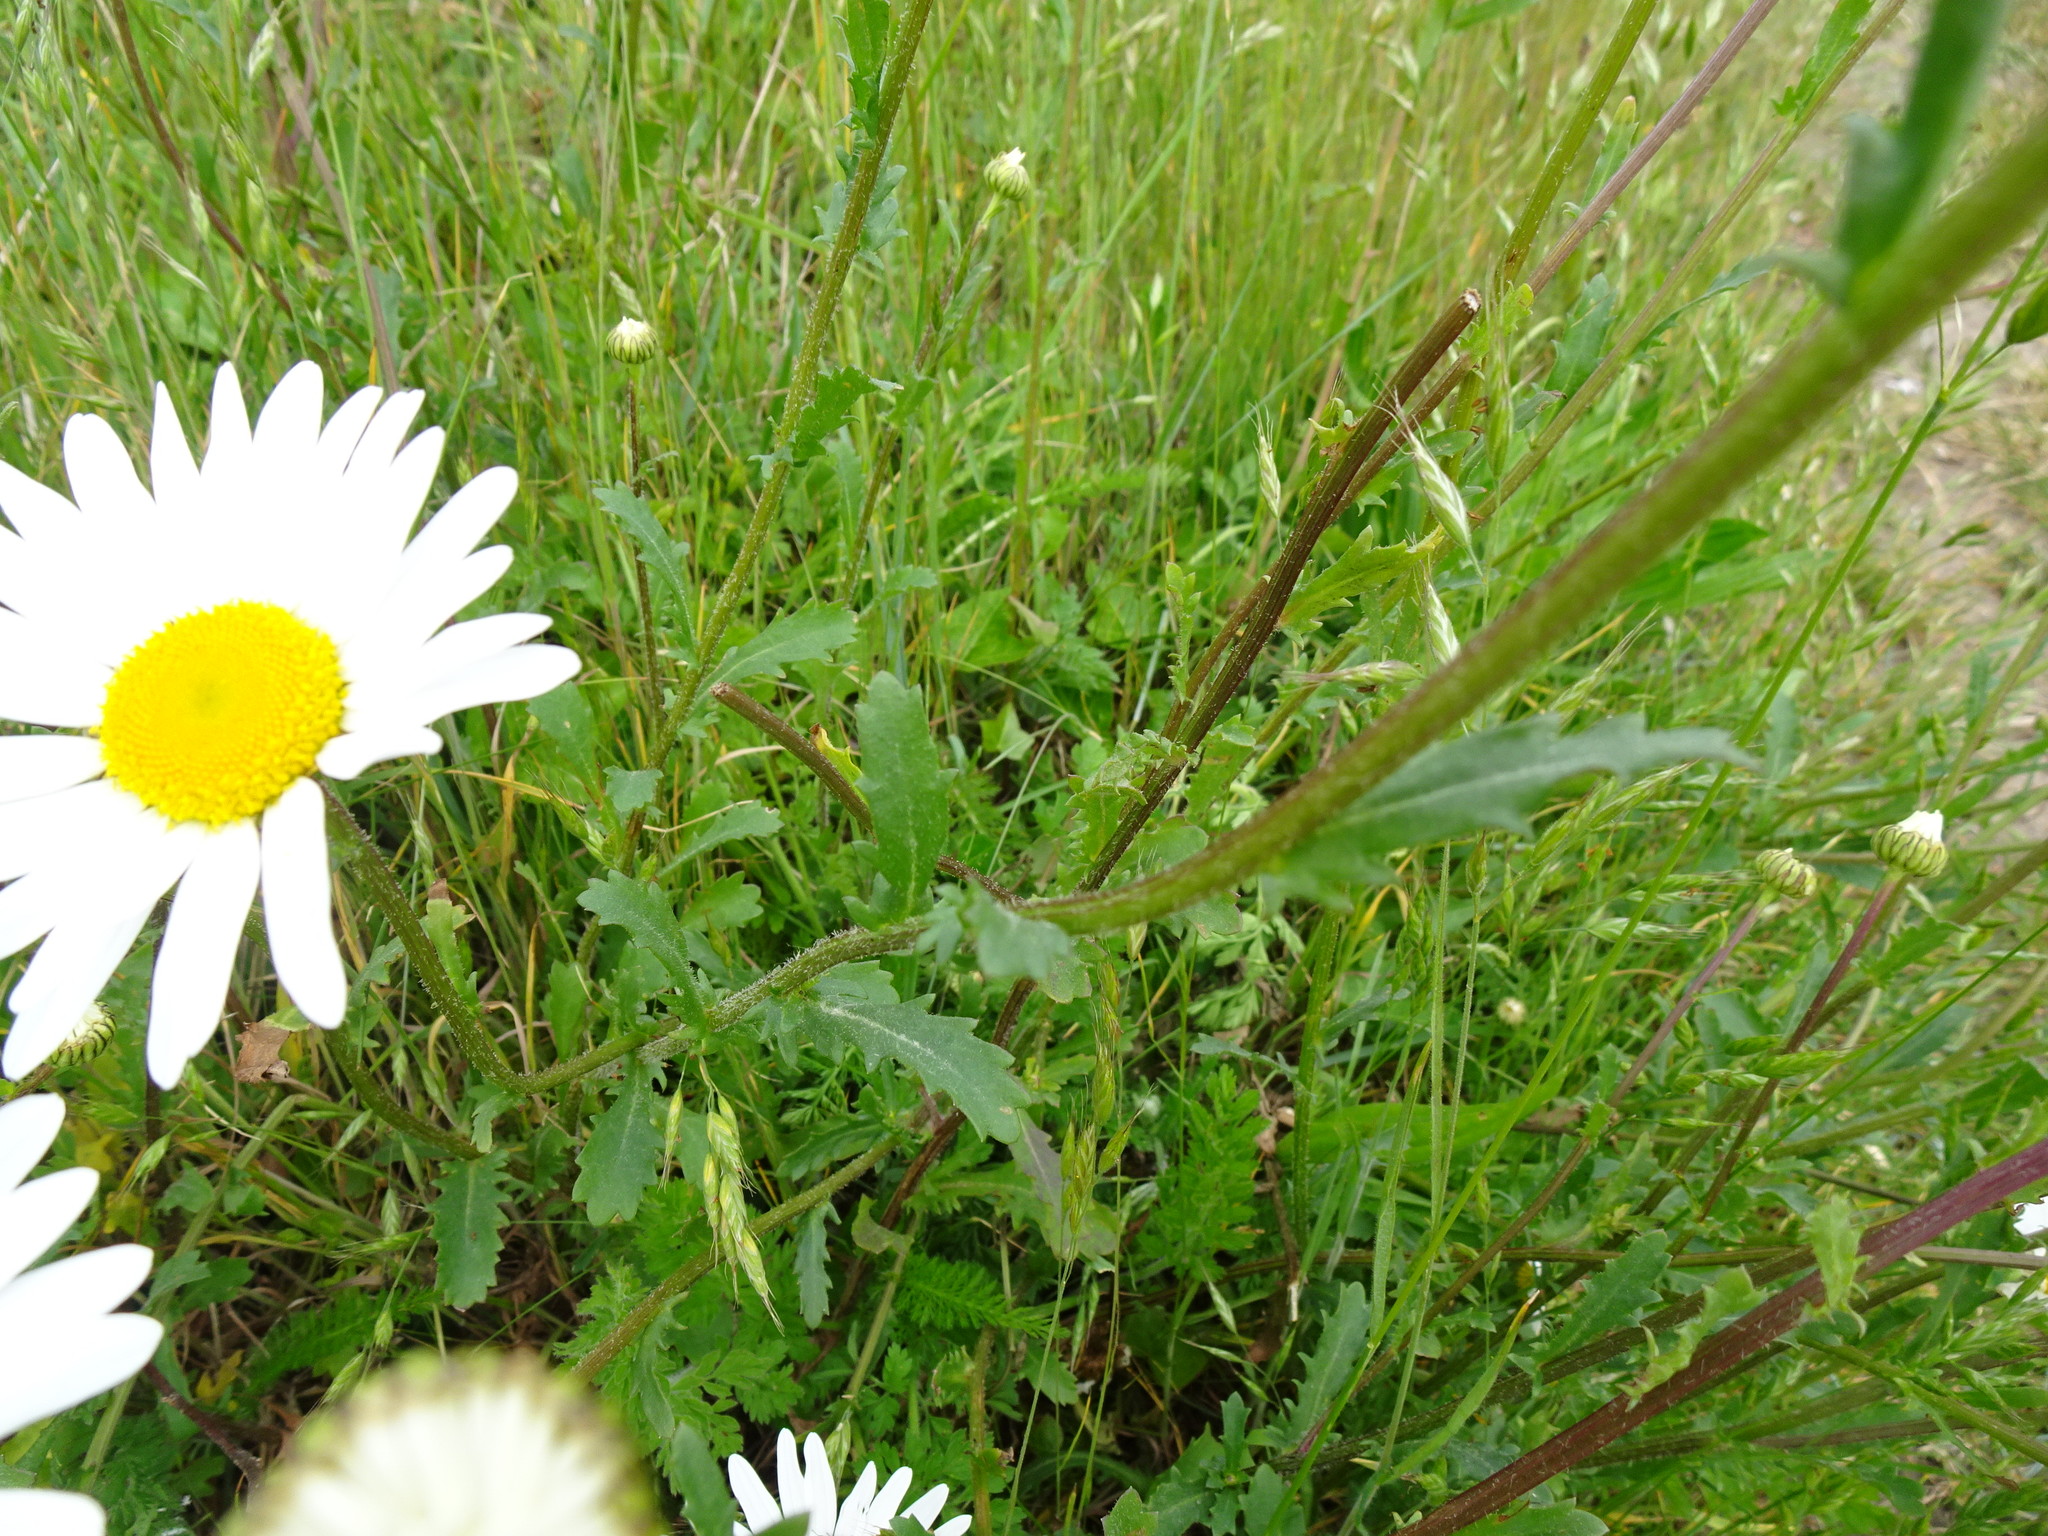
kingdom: Plantae
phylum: Tracheophyta
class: Magnoliopsida
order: Asterales
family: Asteraceae
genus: Leucanthemum
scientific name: Leucanthemum vulgare
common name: Oxeye daisy
